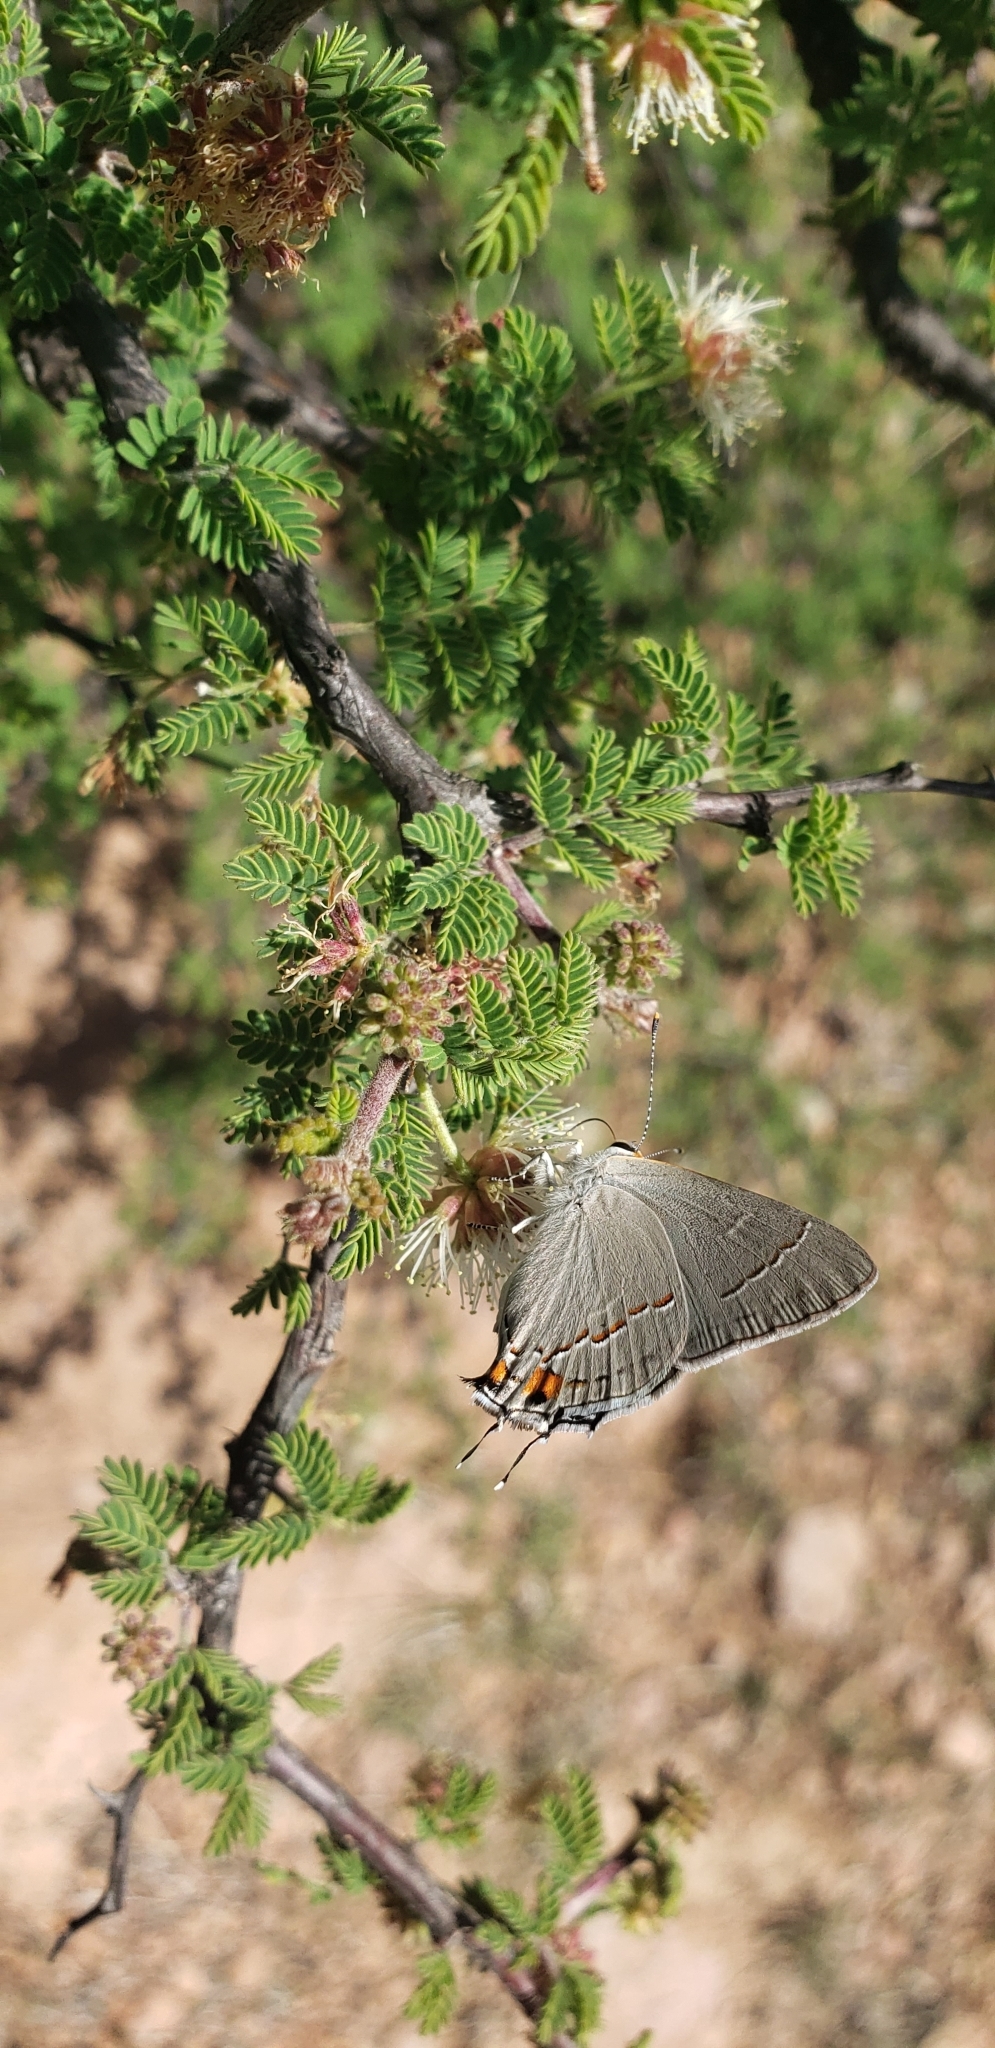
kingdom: Animalia
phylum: Arthropoda
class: Insecta
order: Lepidoptera
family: Lycaenidae
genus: Strymon
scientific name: Strymon melinus
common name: Gray hairstreak
